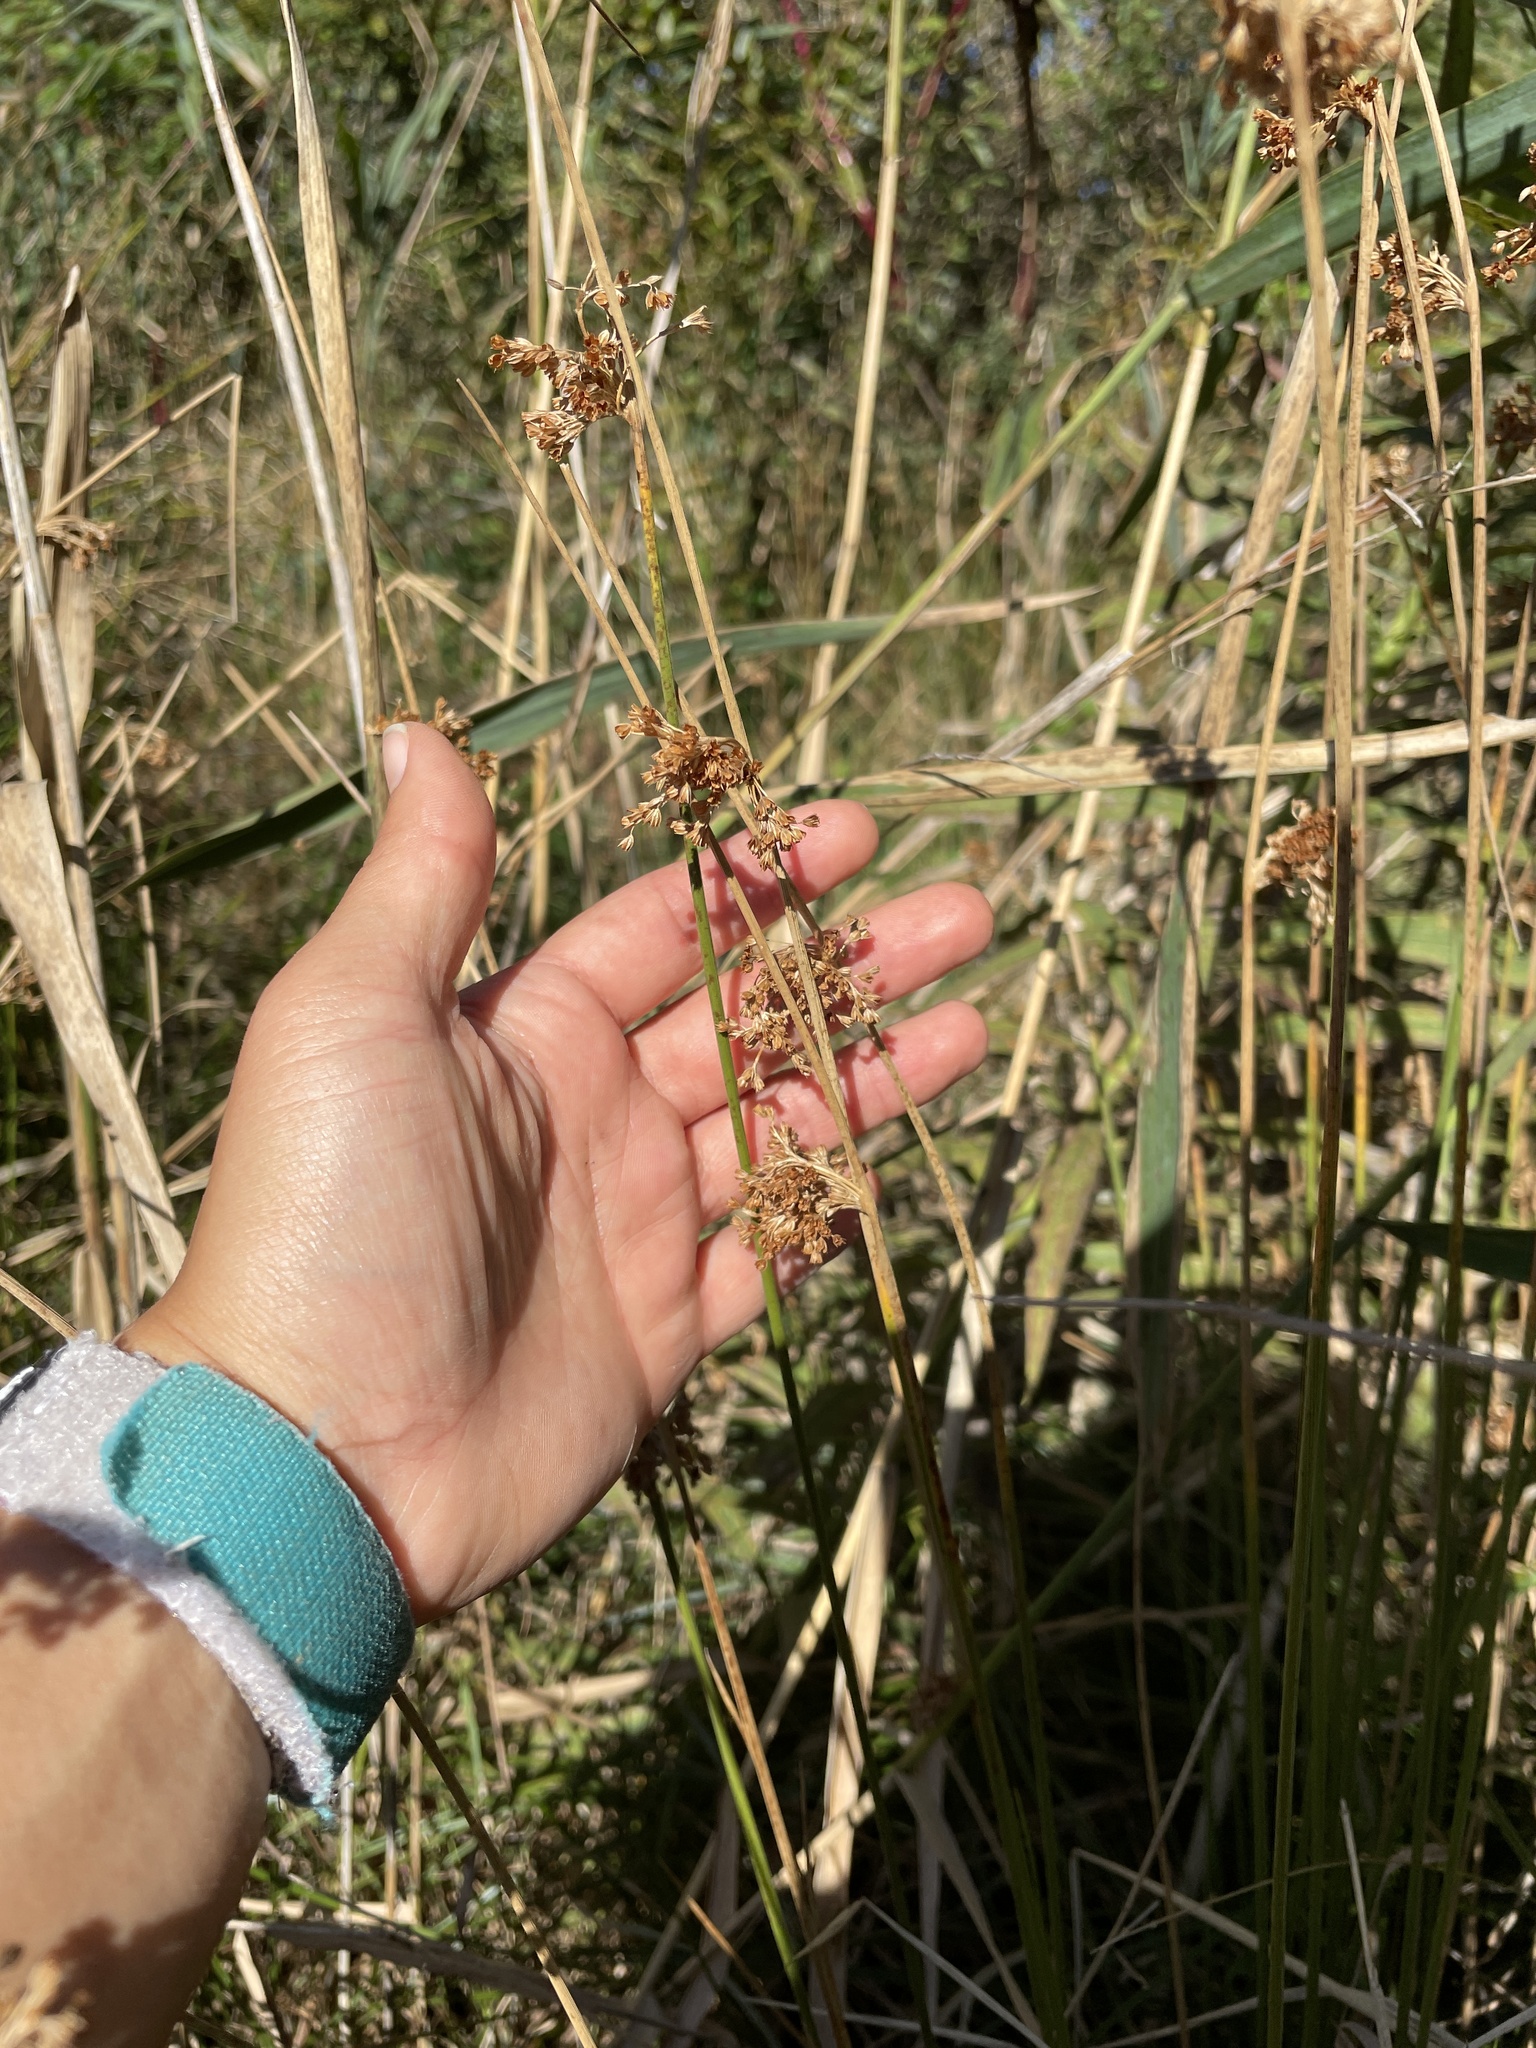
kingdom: Plantae
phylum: Tracheophyta
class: Liliopsida
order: Poales
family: Juncaceae
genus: Juncus
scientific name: Juncus effusus
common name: Soft rush
